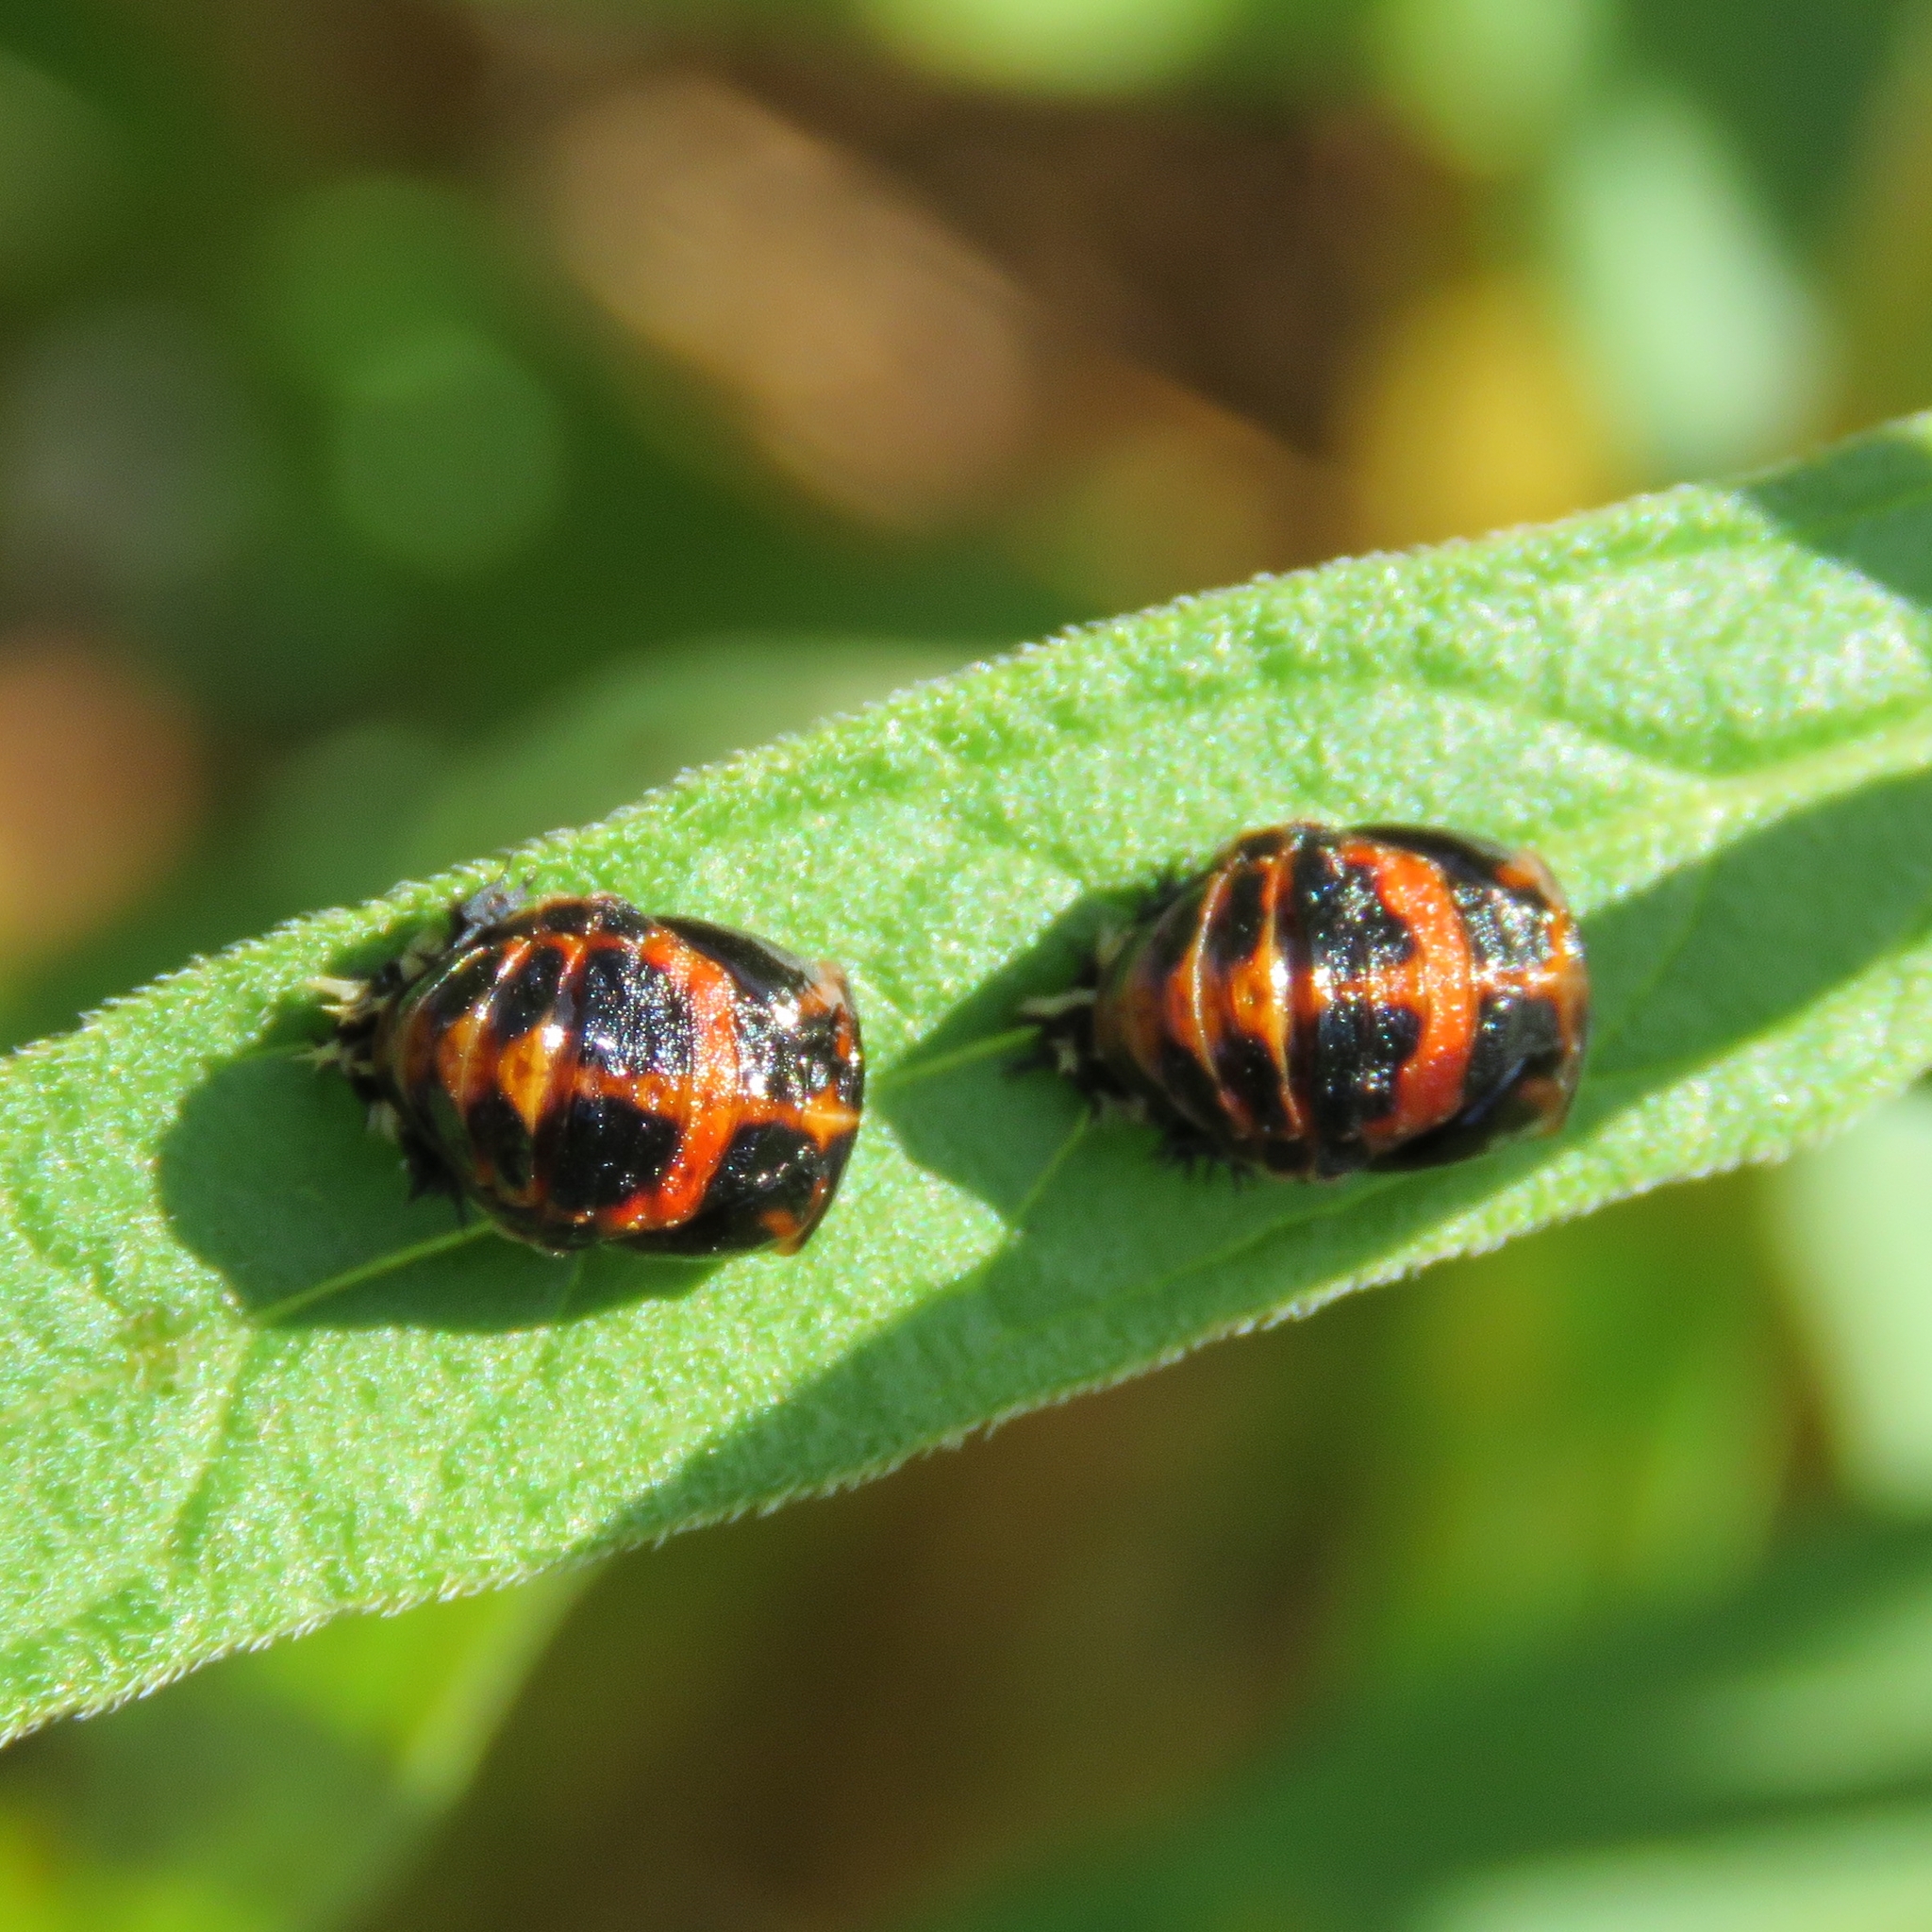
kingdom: Animalia
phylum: Arthropoda
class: Insecta
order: Coleoptera
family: Coccinellidae
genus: Harmonia
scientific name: Harmonia axyridis
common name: Harlequin ladybird
